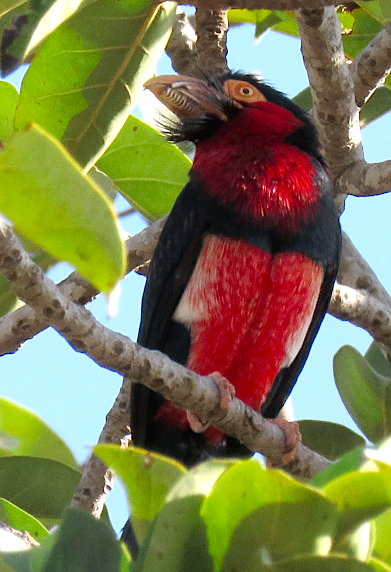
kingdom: Animalia
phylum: Chordata
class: Aves
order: Piciformes
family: Lybiidae
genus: Lybius
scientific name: Lybius dubius
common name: Bearded barbet
